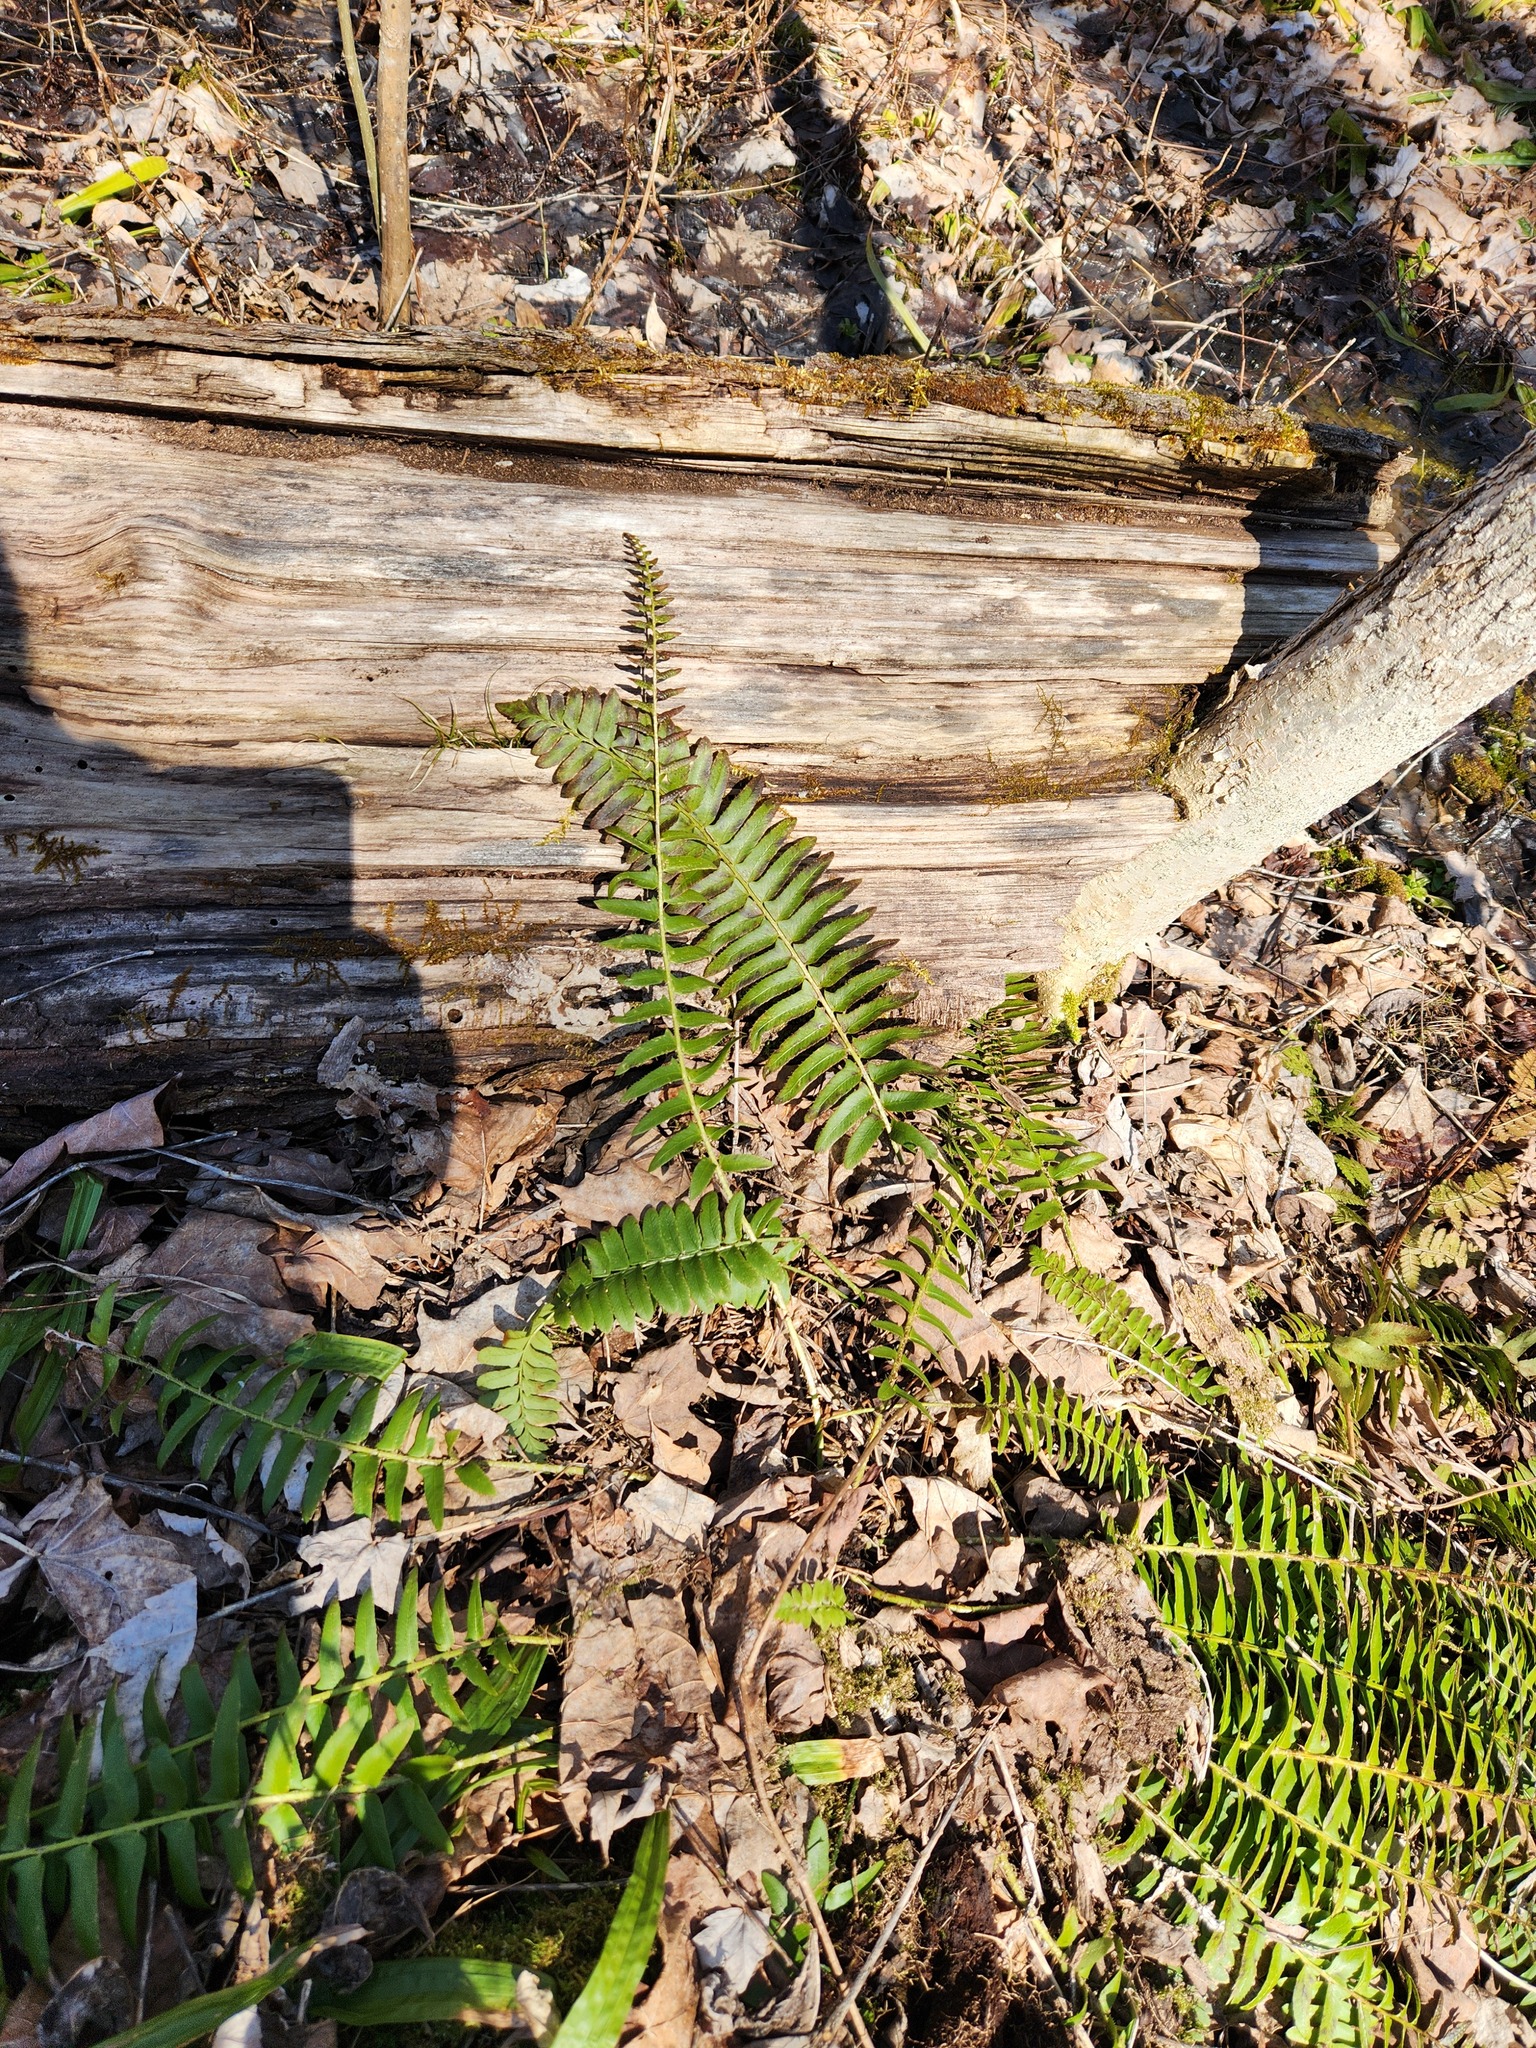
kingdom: Plantae
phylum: Tracheophyta
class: Polypodiopsida
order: Polypodiales
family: Dryopteridaceae
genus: Polystichum
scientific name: Polystichum acrostichoides
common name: Christmas fern
